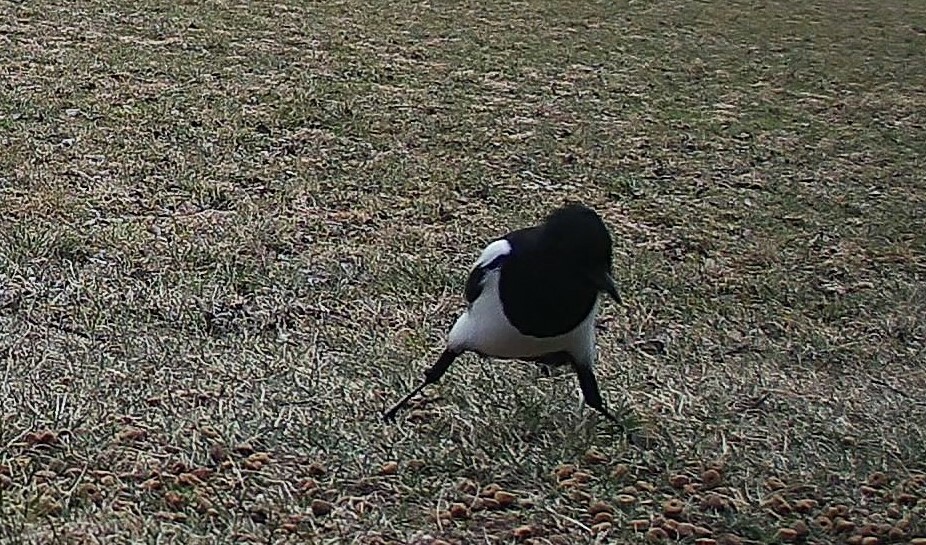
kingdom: Animalia
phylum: Chordata
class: Aves
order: Passeriformes
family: Corvidae
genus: Pica
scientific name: Pica pica
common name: Eurasian magpie
